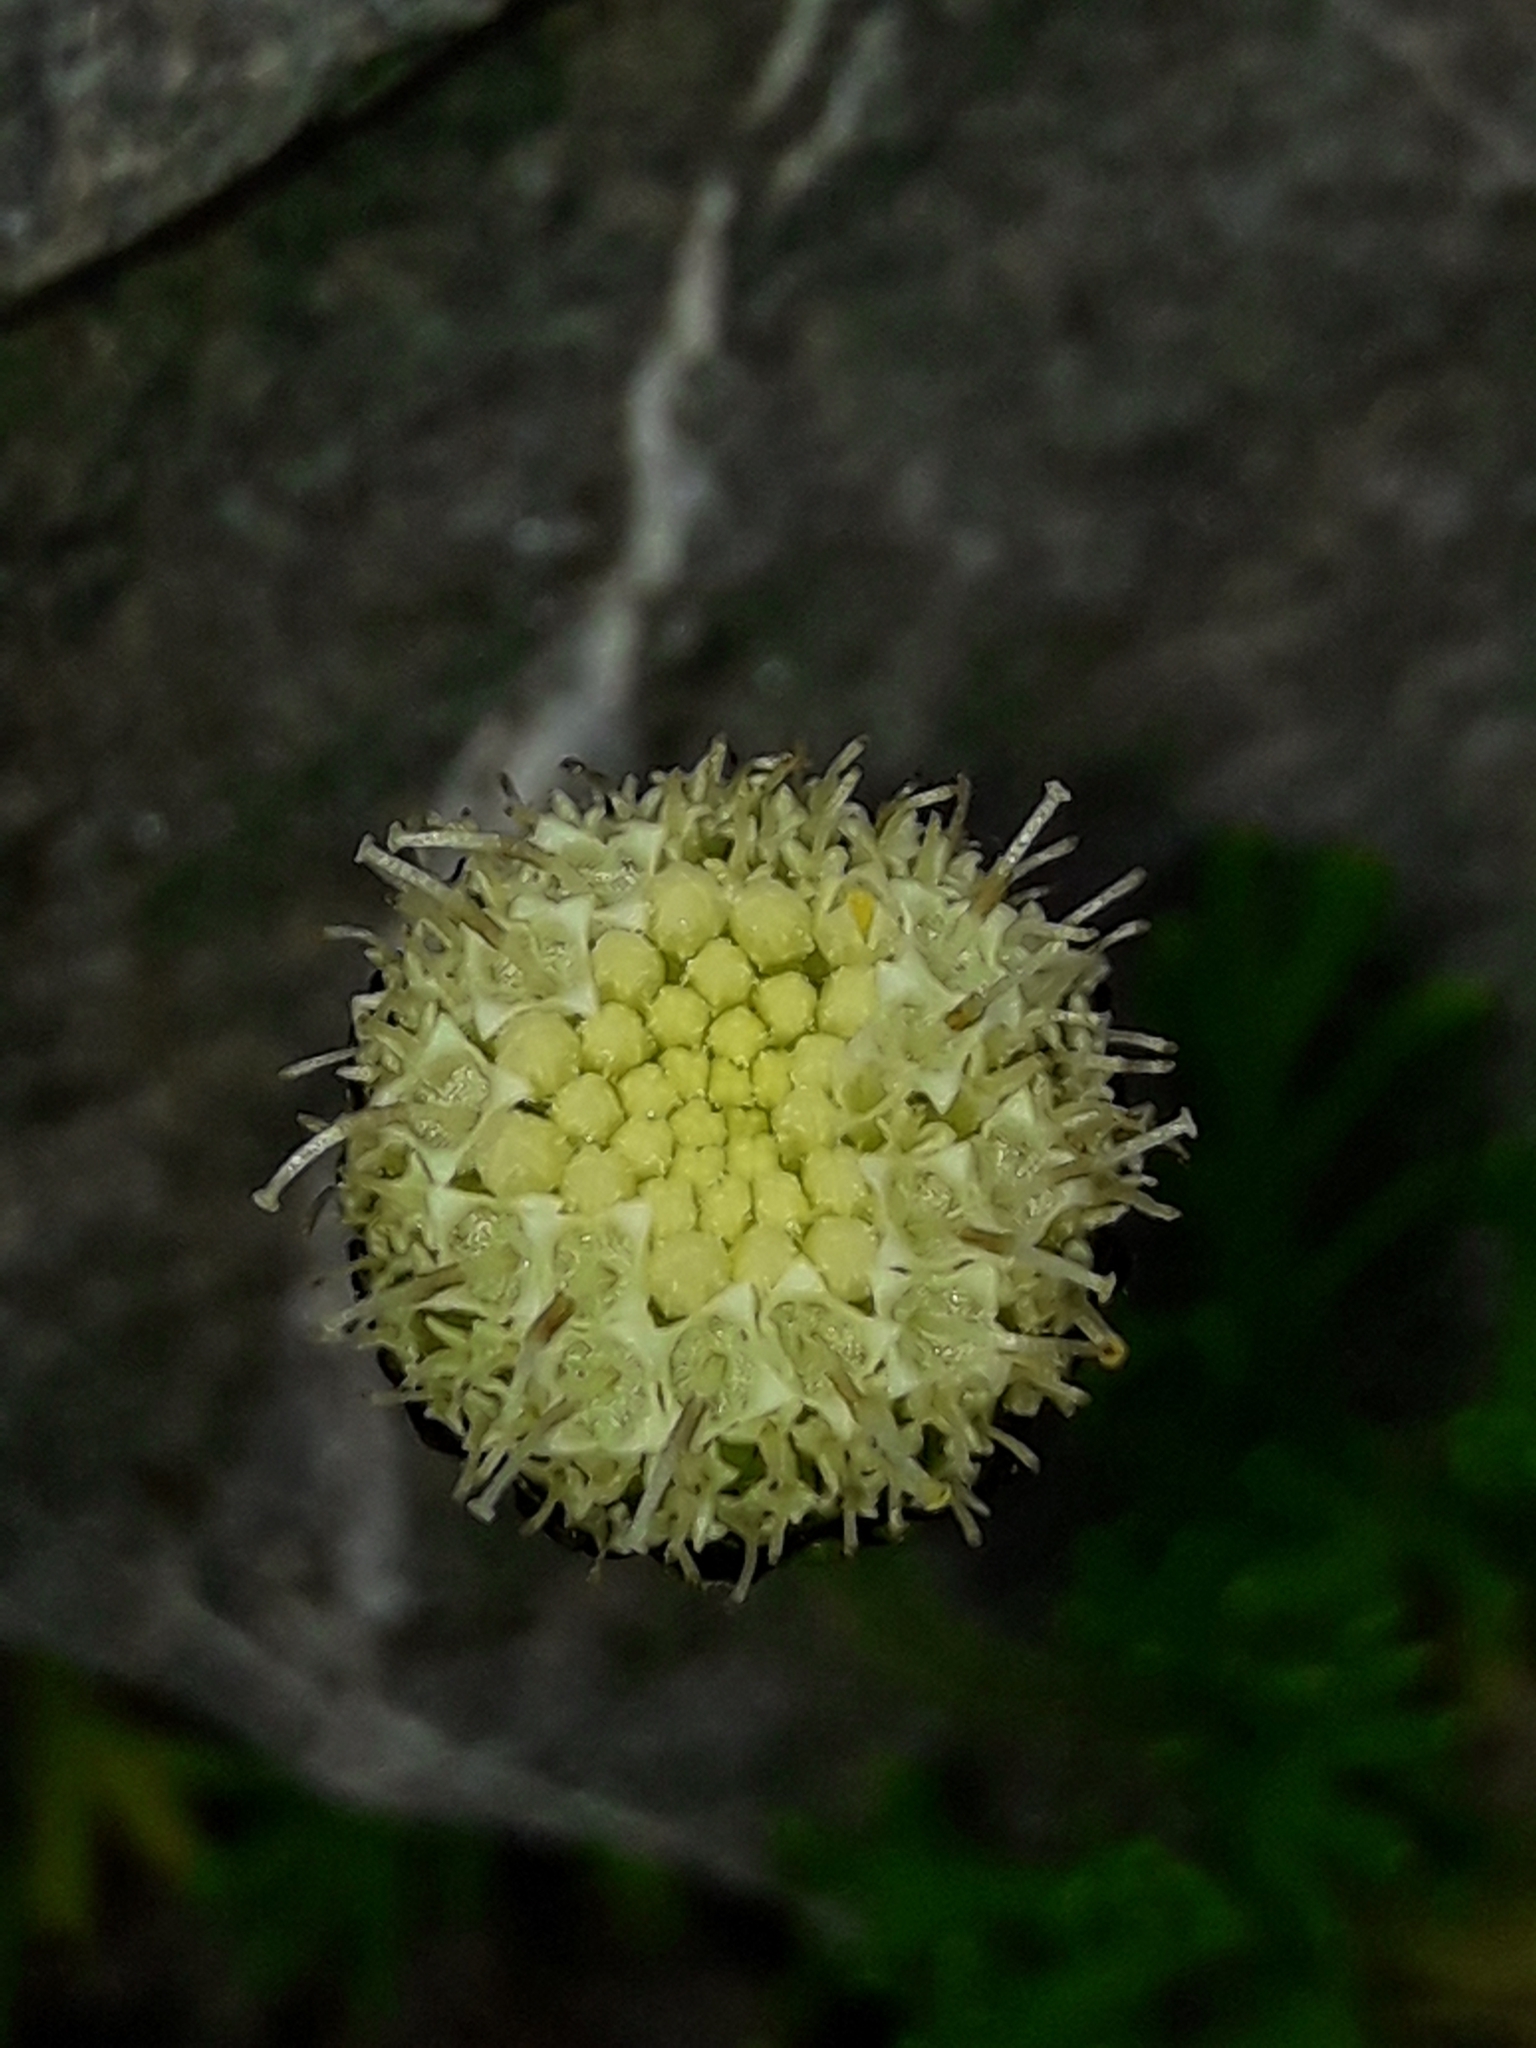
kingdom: Plantae
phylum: Tracheophyta
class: Magnoliopsida
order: Asterales
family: Asteraceae
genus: Leptinella
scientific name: Leptinella pyrethrifolia
